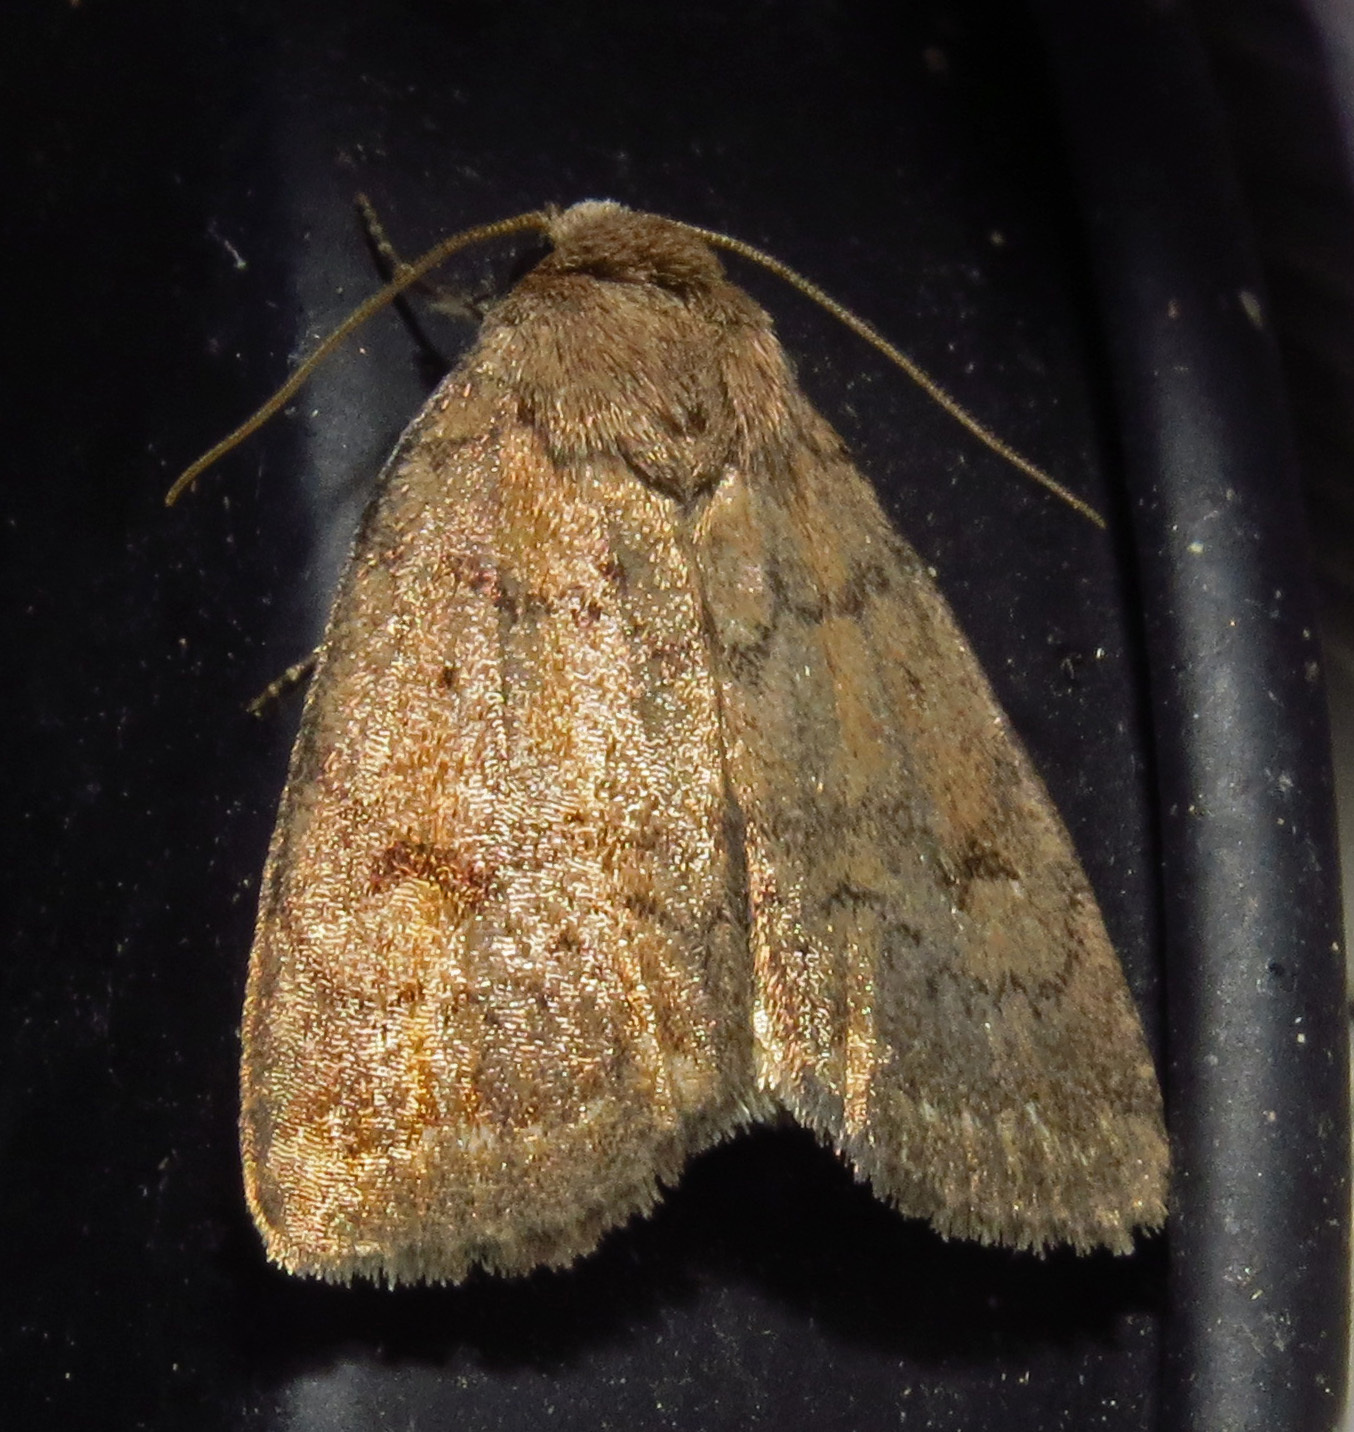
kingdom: Animalia
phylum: Arthropoda
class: Insecta
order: Lepidoptera
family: Noctuidae
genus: Athetis
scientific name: Athetis tarda
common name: Slowpoke moth
